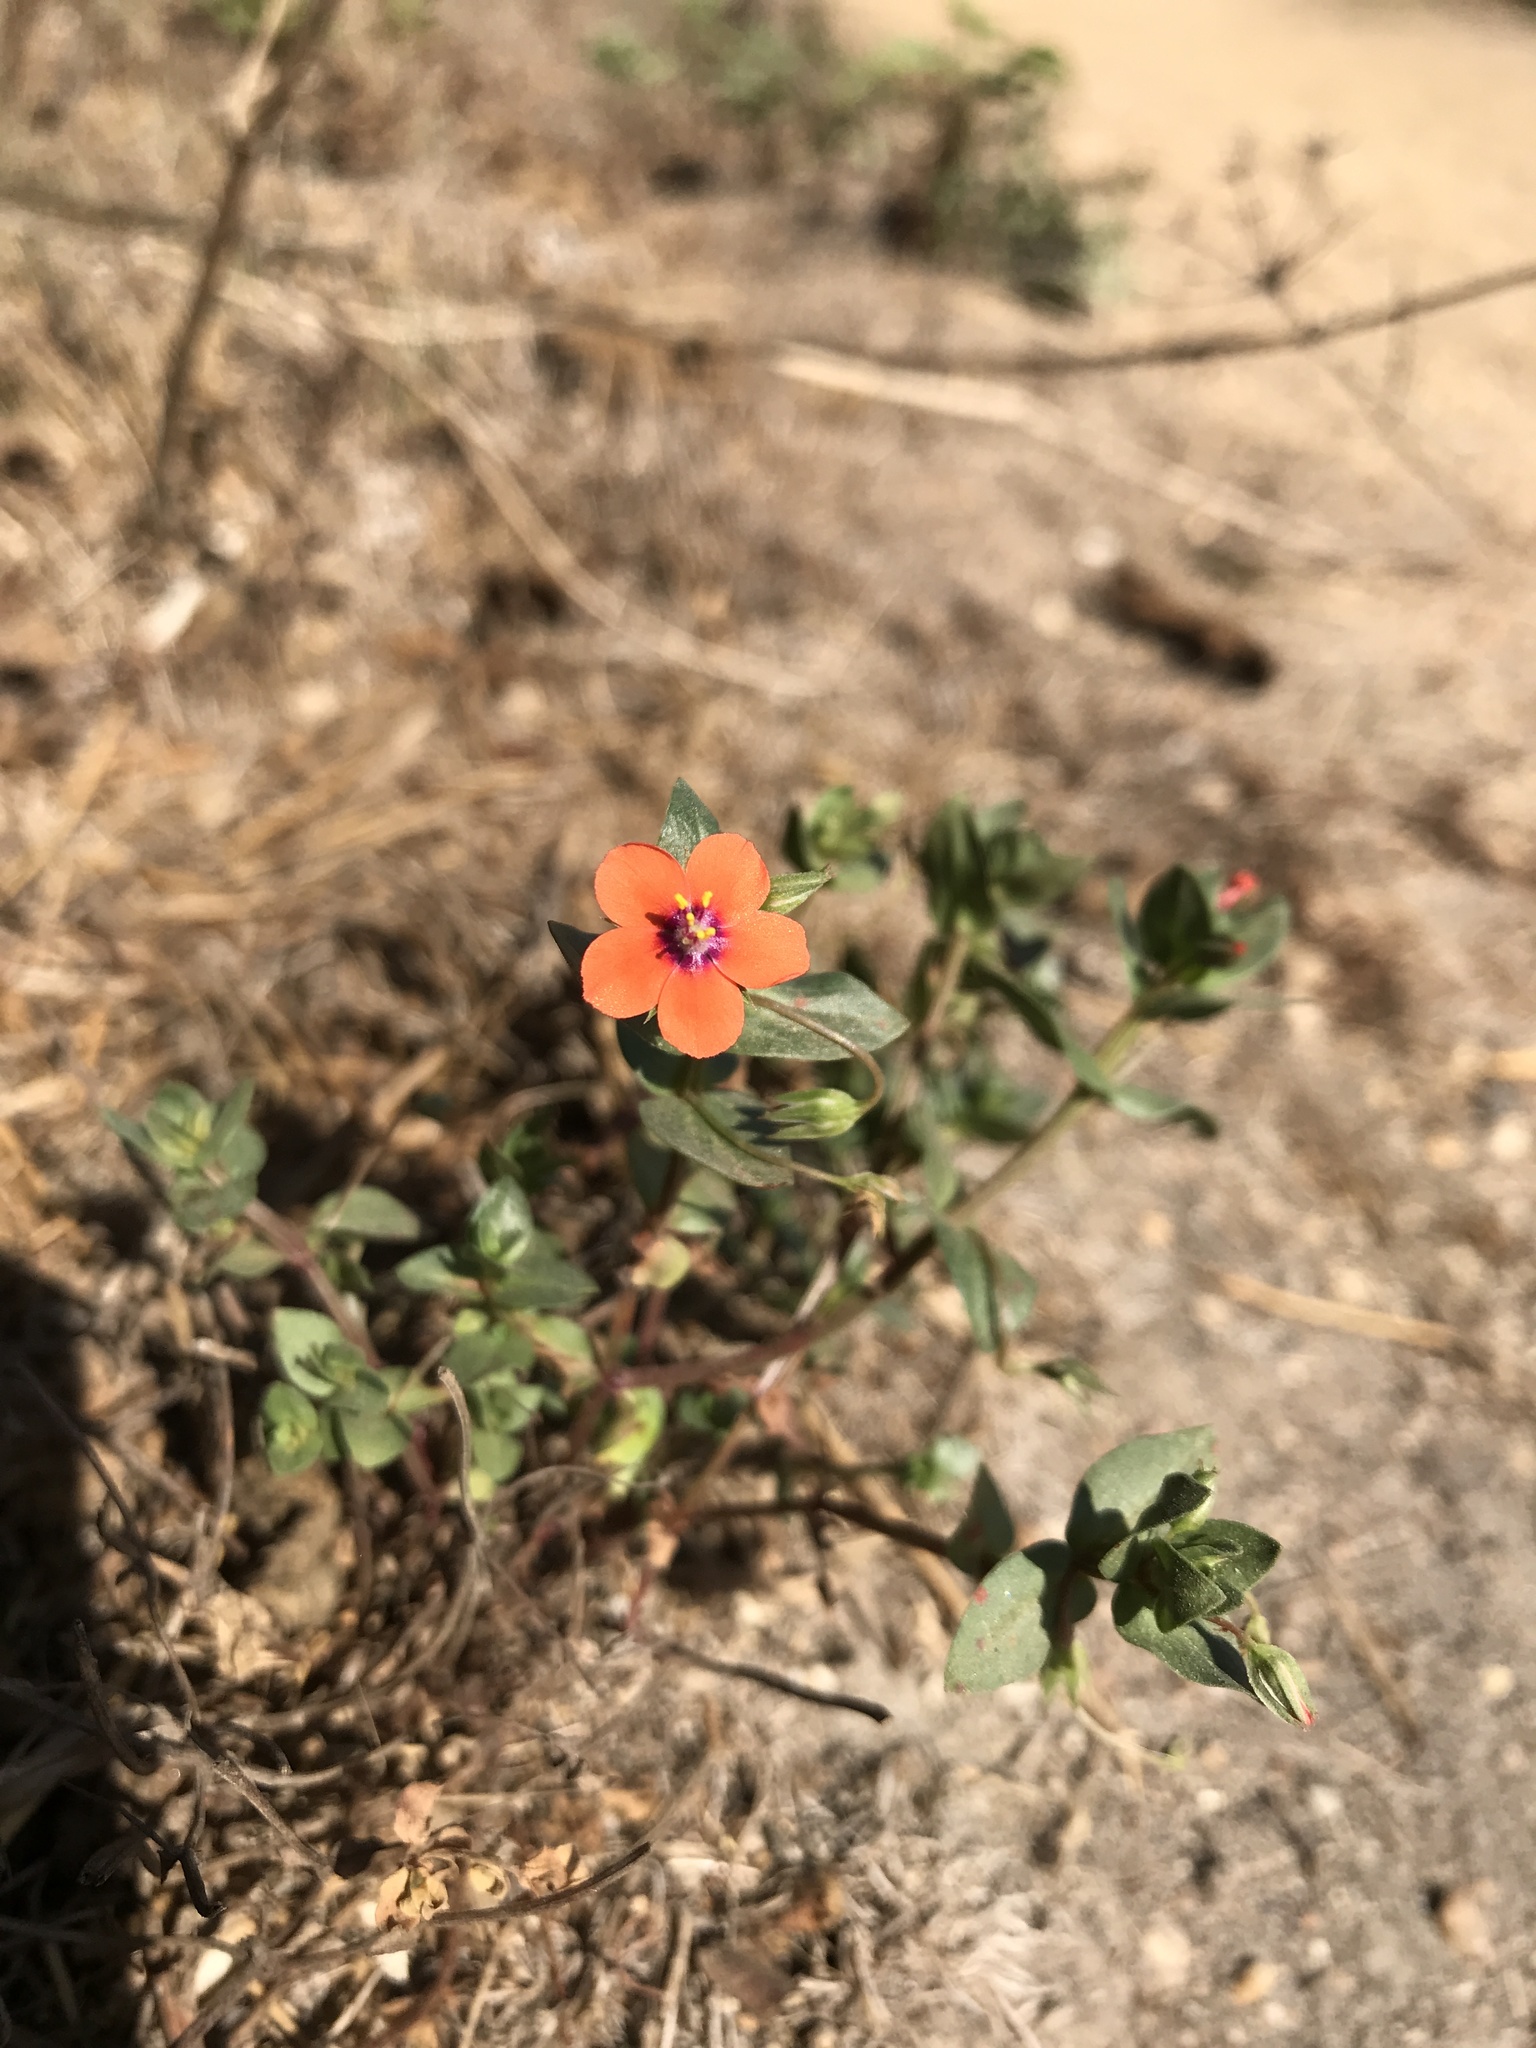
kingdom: Plantae
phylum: Tracheophyta
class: Magnoliopsida
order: Ericales
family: Primulaceae
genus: Lysimachia
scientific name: Lysimachia arvensis
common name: Scarlet pimpernel
